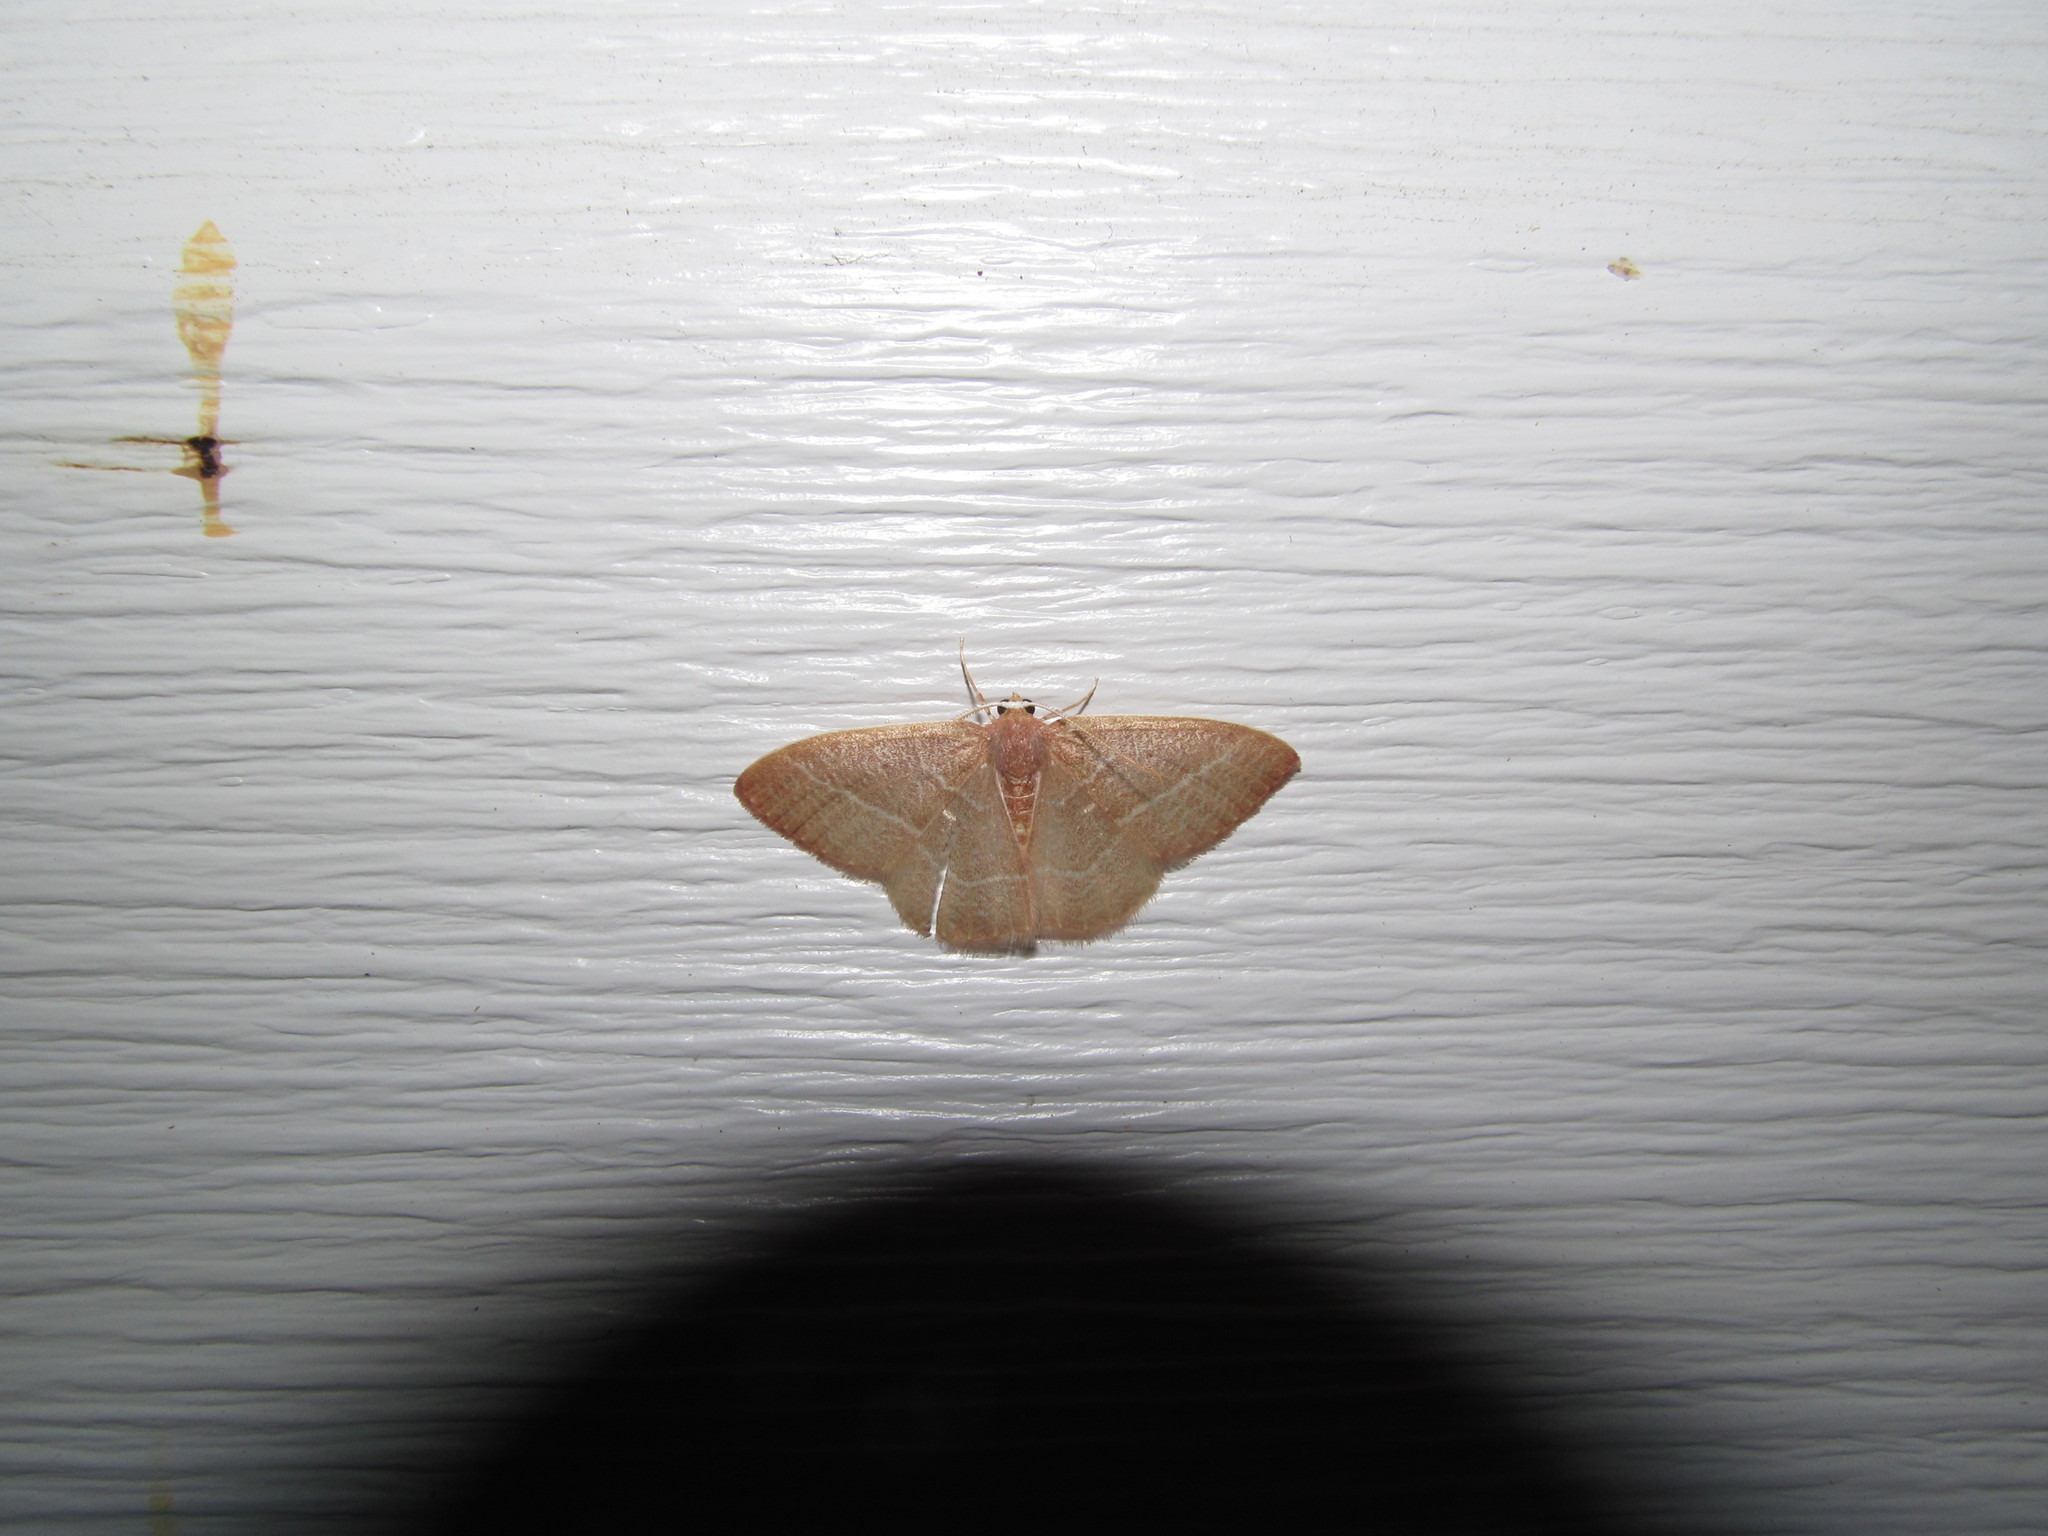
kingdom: Animalia
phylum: Arthropoda
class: Insecta
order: Lepidoptera
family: Geometridae
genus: Nemoria
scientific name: Nemoria bistriaria
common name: Red-fringed emerald
